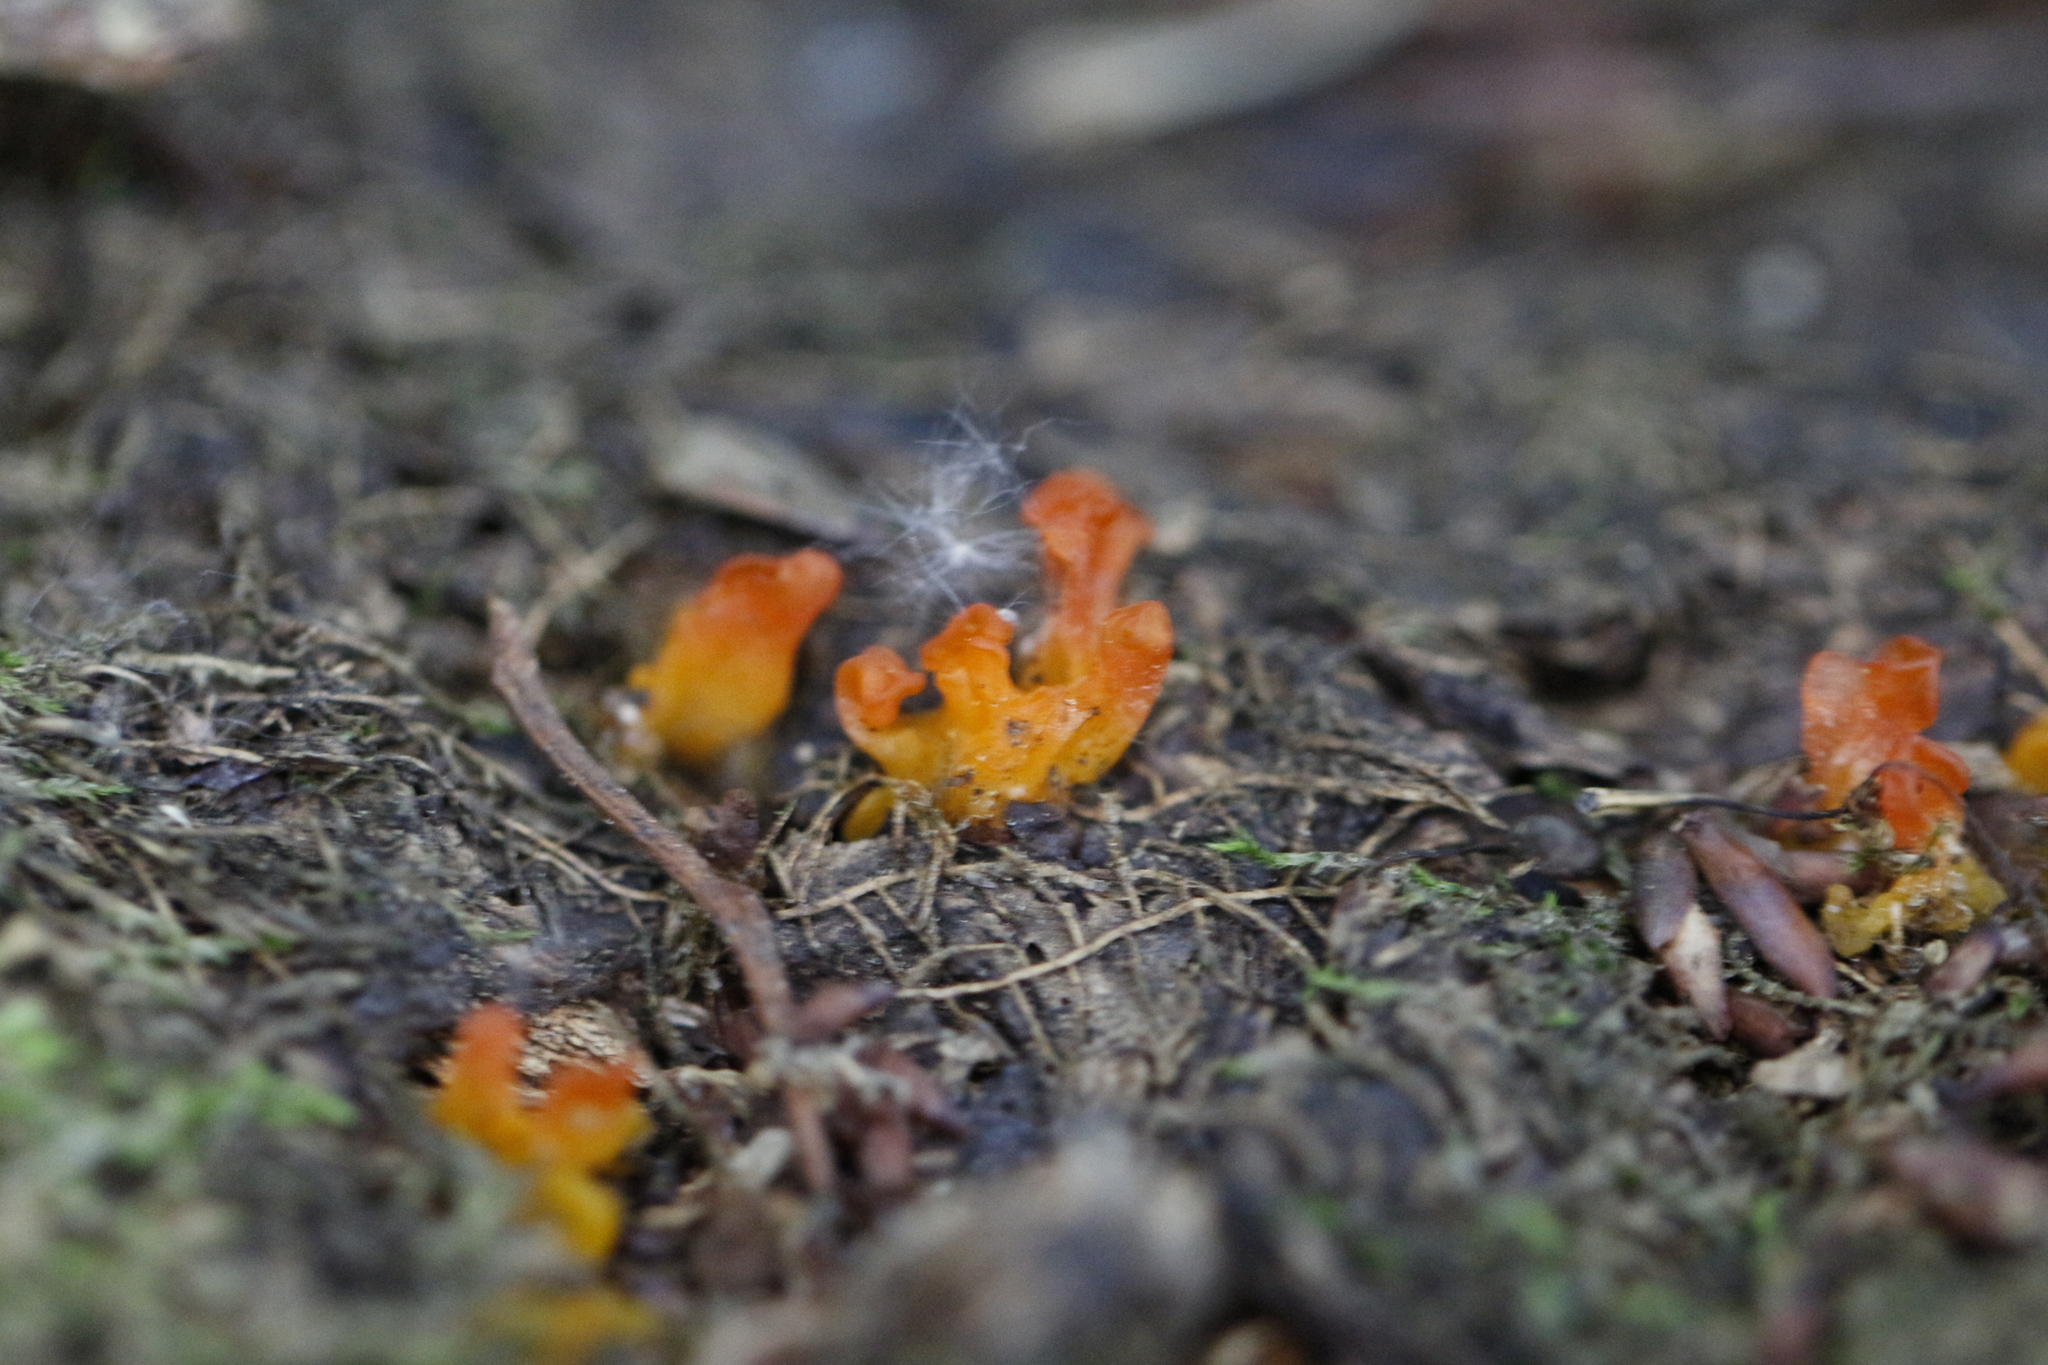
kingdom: Fungi
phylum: Basidiomycota
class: Dacrymycetes
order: Dacrymycetales
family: Dacrymycetaceae
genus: Calocera
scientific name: Calocera viscosa
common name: Yellow stagshorn
